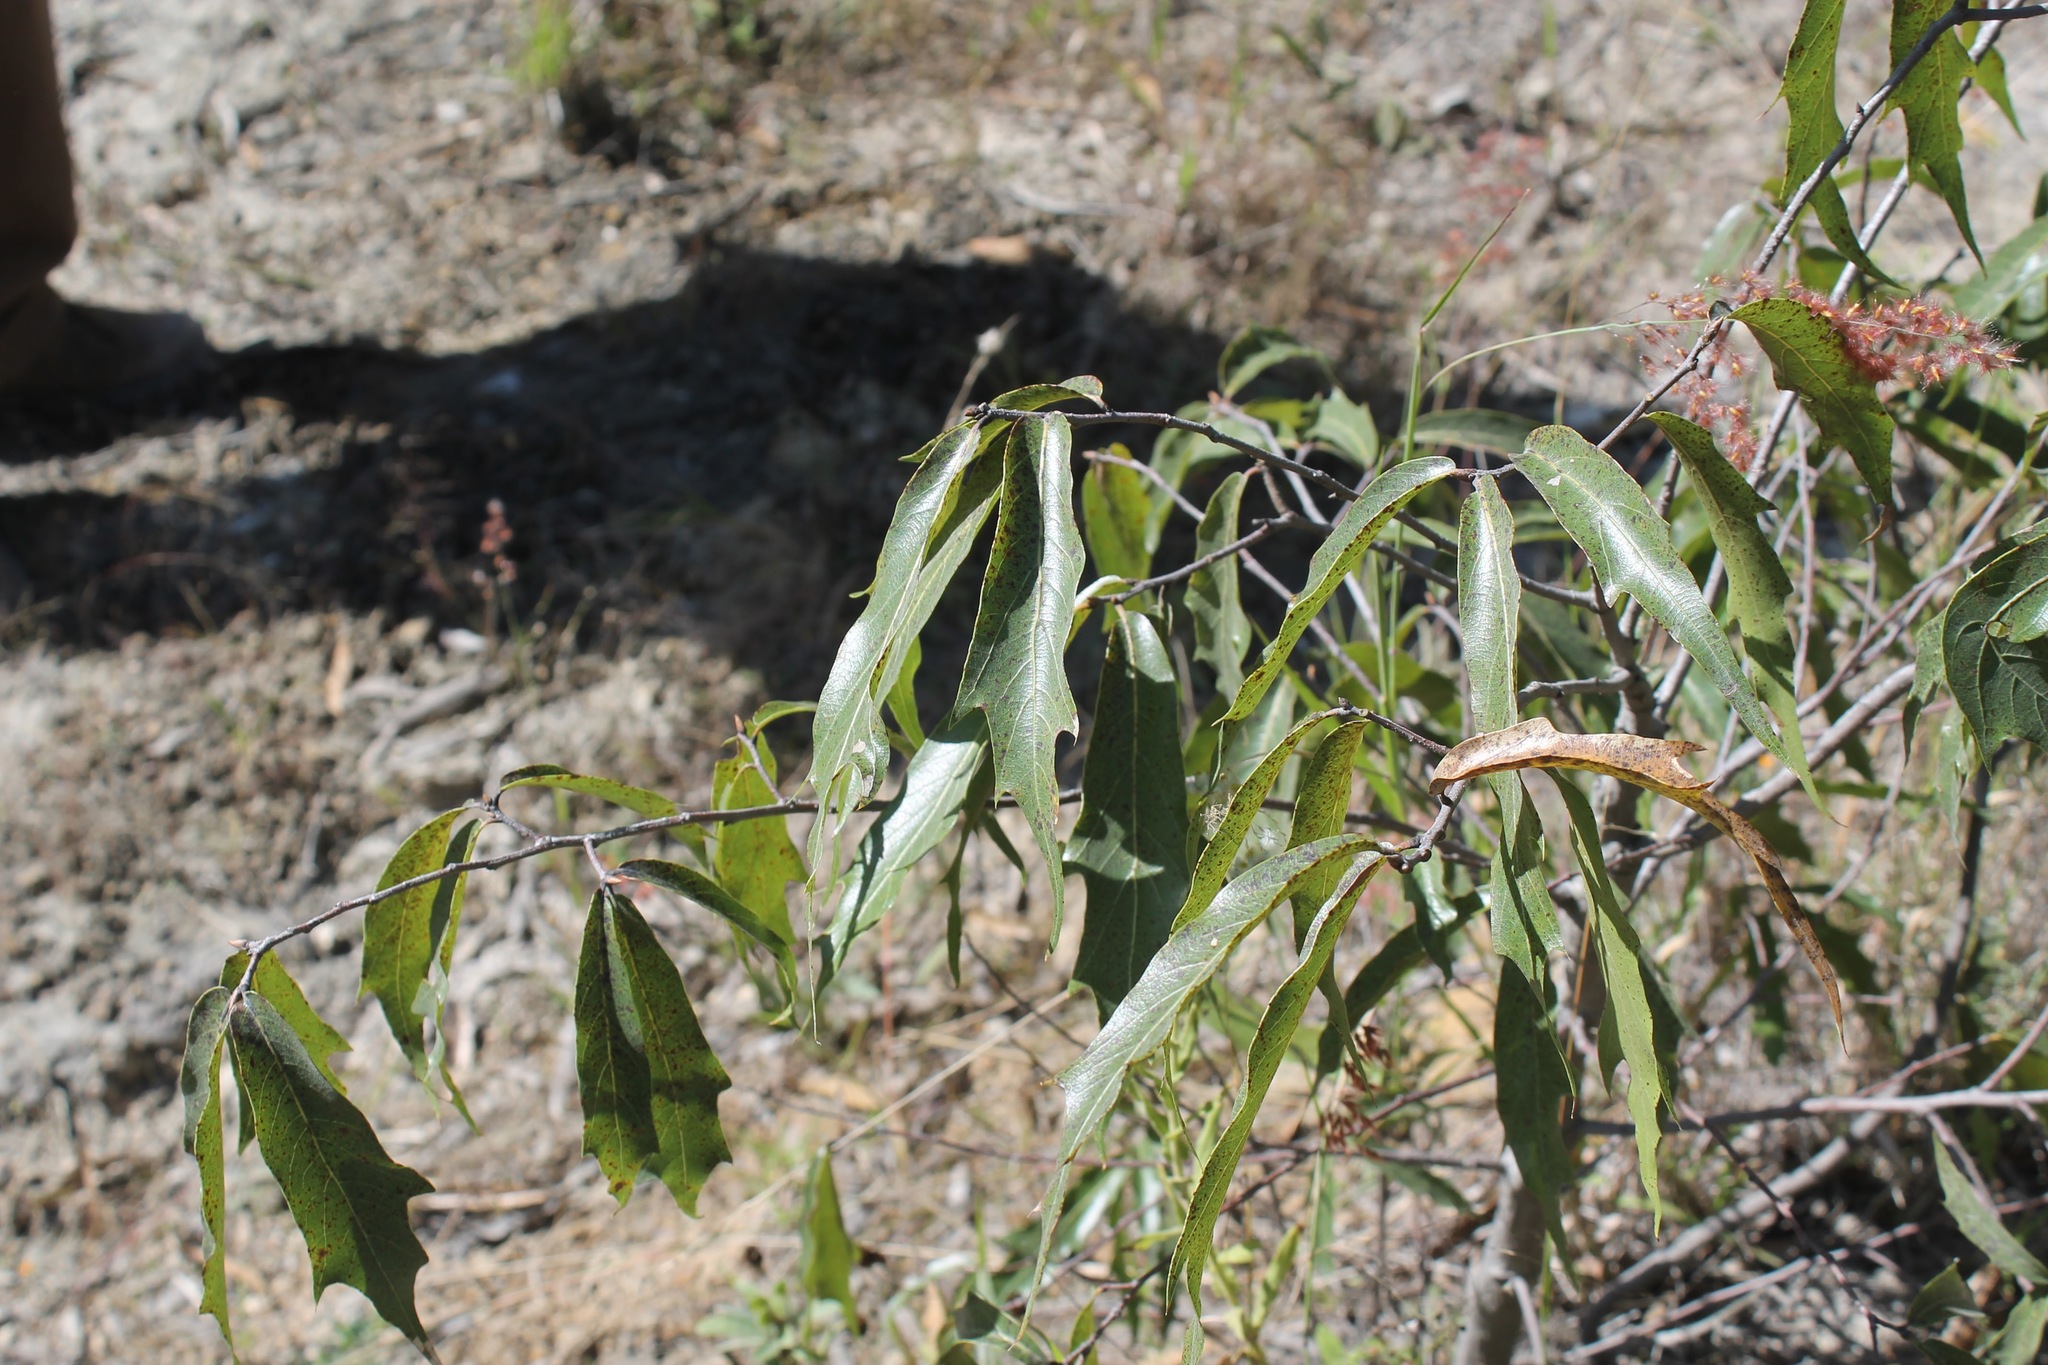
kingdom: Plantae
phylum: Tracheophyta
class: Magnoliopsida
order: Fagales
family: Fagaceae
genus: Quercus
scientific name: Quercus viminea
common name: Mexican willow oak
